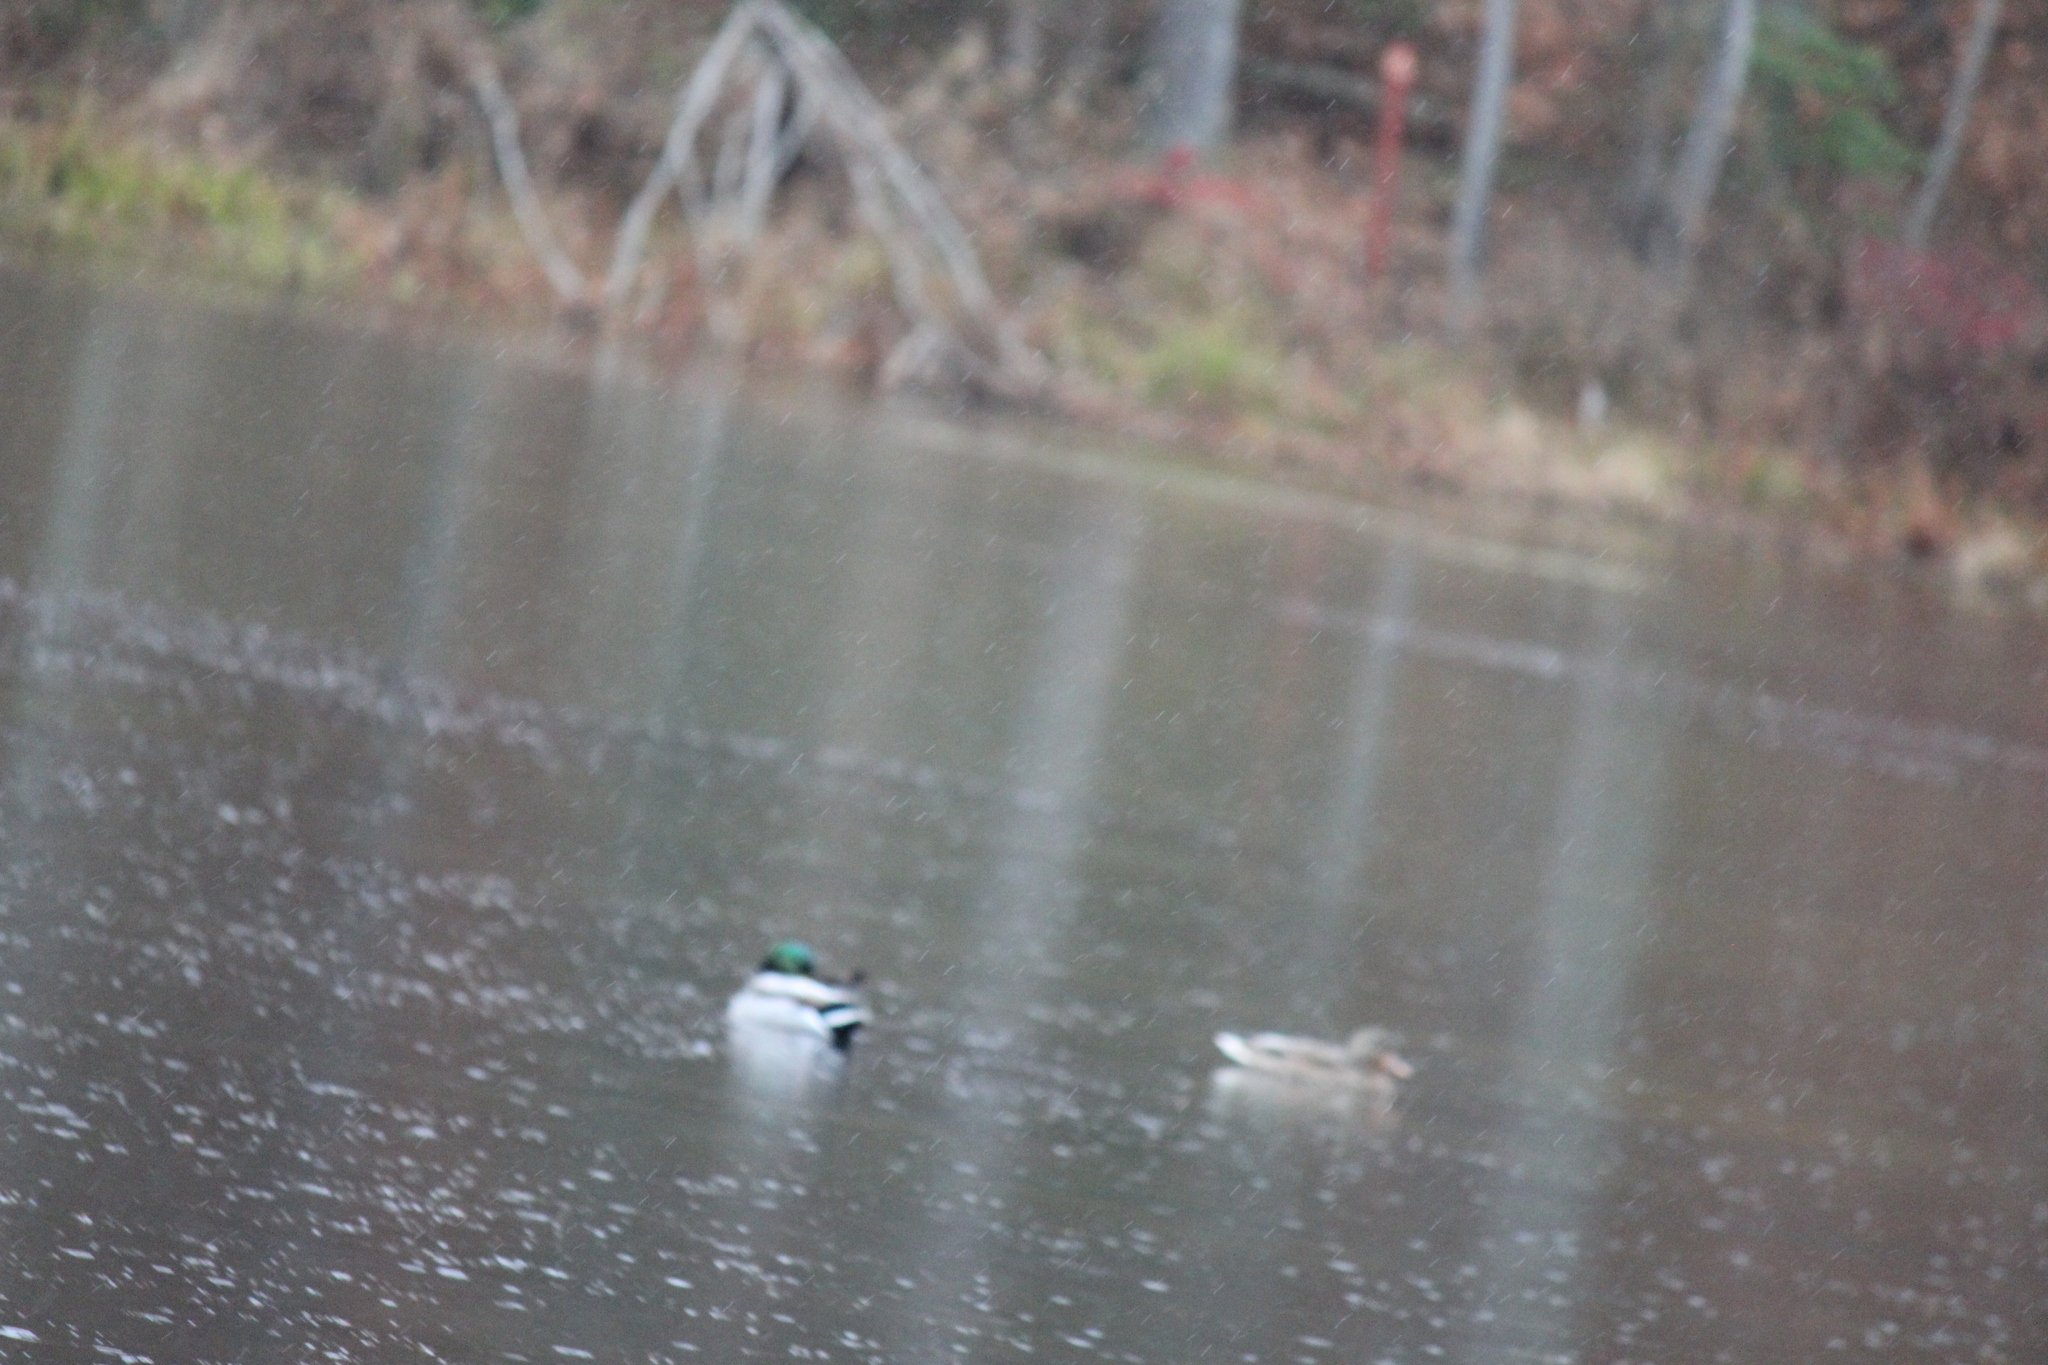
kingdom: Animalia
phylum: Chordata
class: Aves
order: Anseriformes
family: Anatidae
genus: Anas
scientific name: Anas platyrhynchos
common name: Mallard
